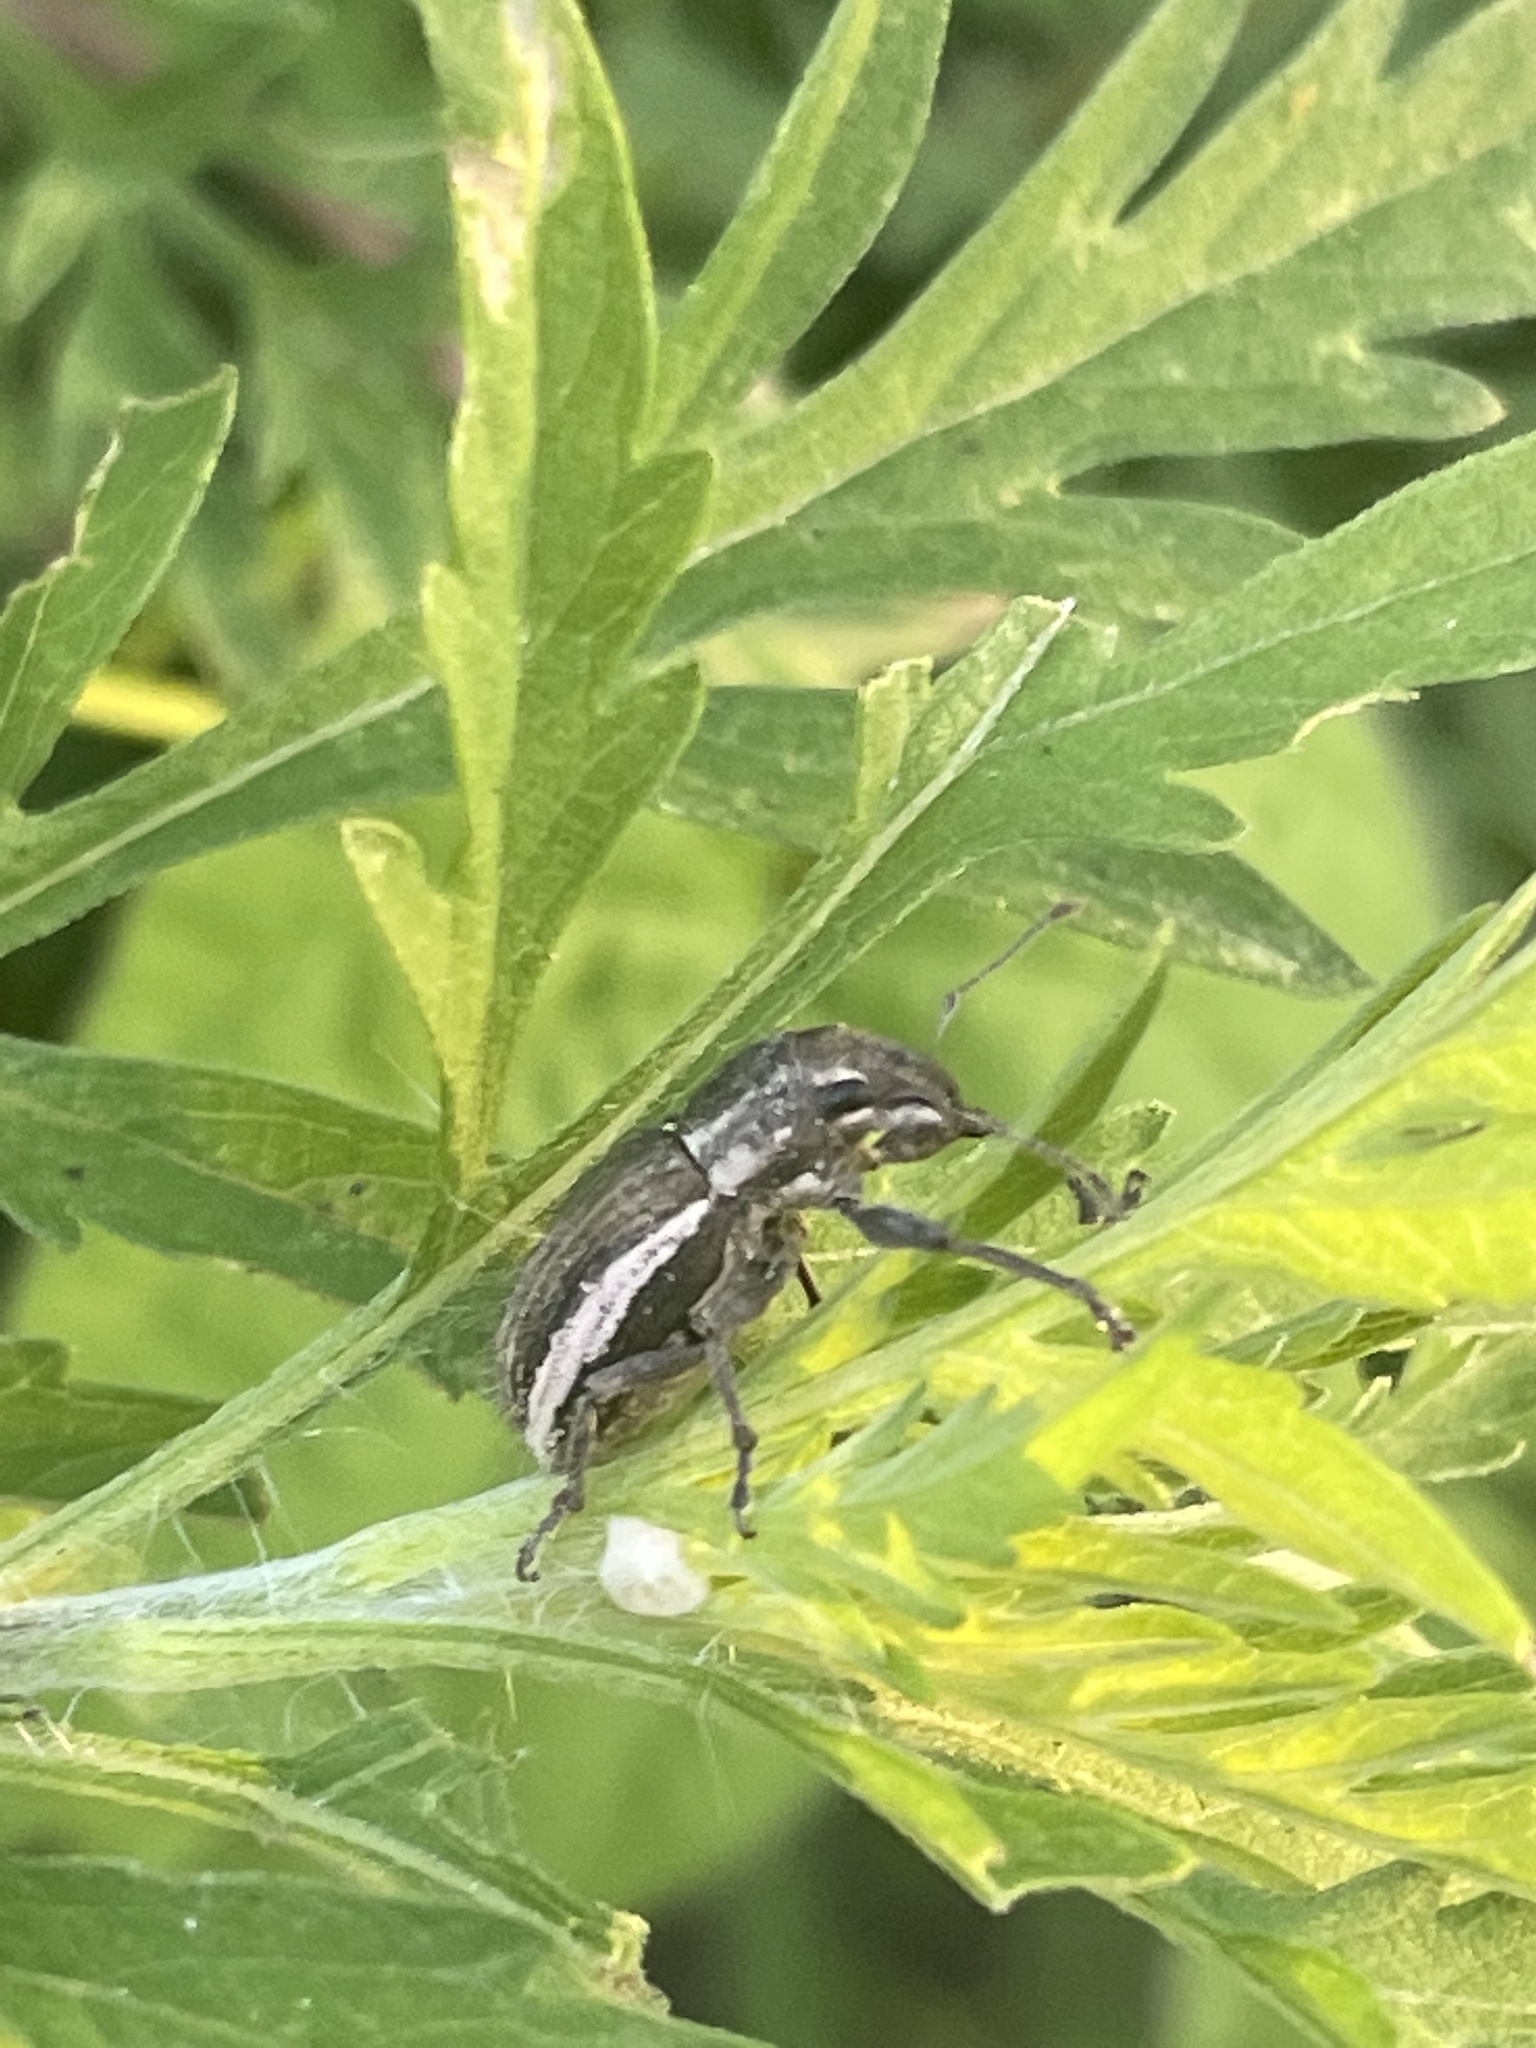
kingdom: Animalia
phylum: Arthropoda
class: Insecta
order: Coleoptera
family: Curculionidae
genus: Naupactus
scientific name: Naupactus leucoloma
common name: Whitefringed beetle
